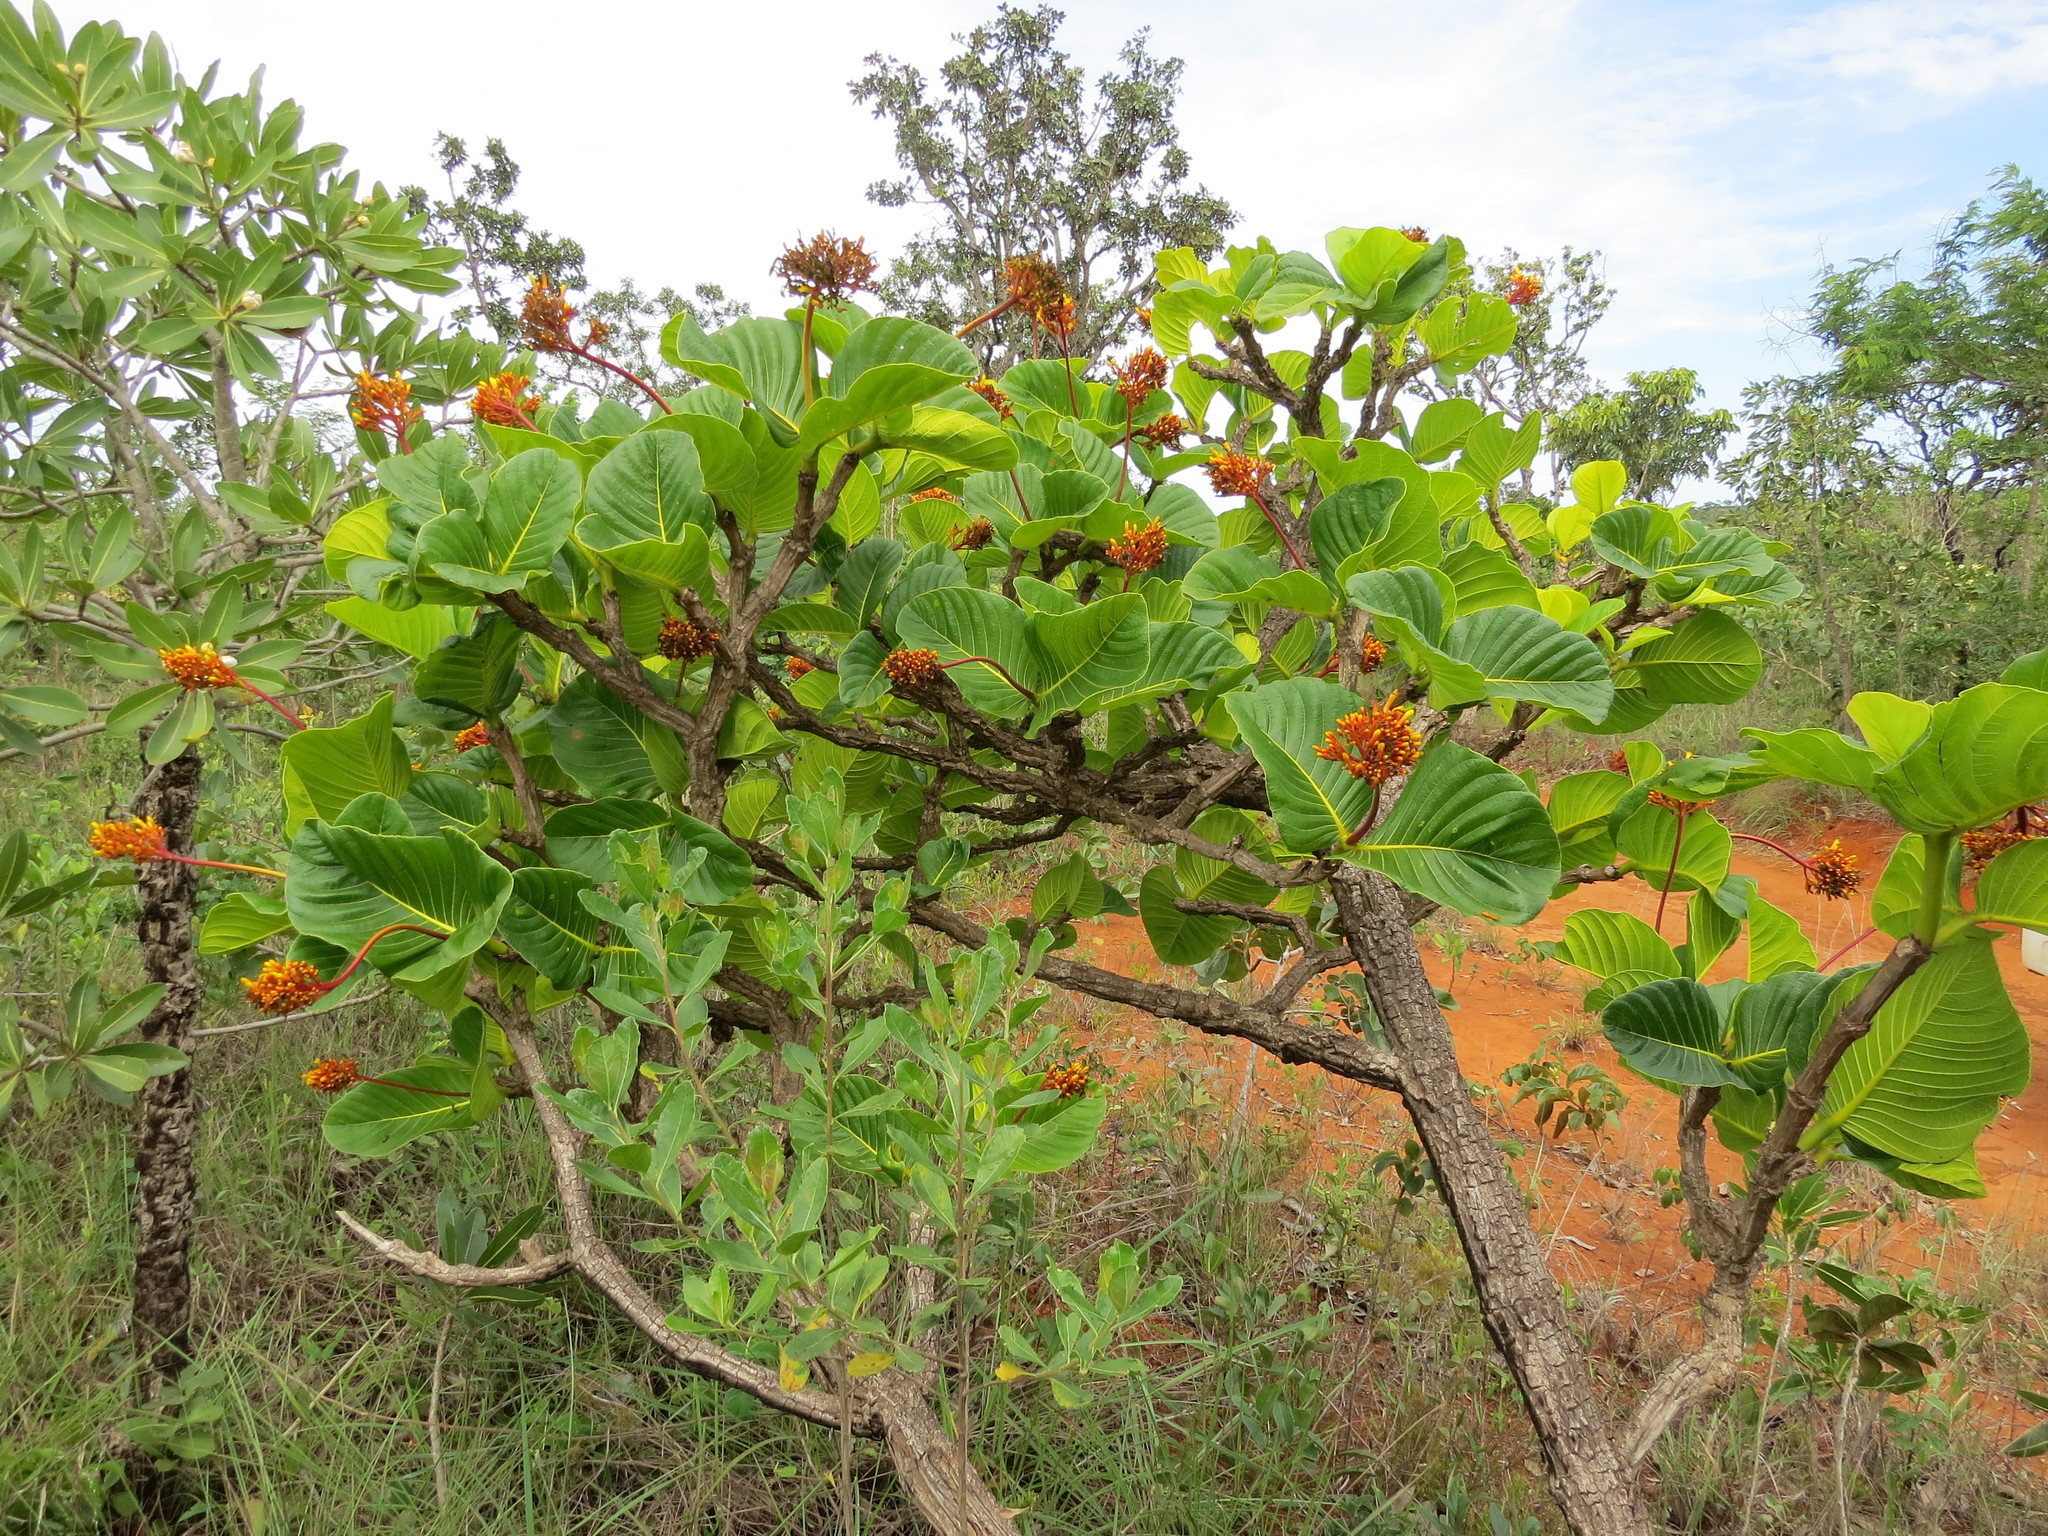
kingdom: Plantae
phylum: Tracheophyta
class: Magnoliopsida
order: Gentianales
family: Rubiaceae
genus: Palicourea
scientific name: Palicourea rigida
